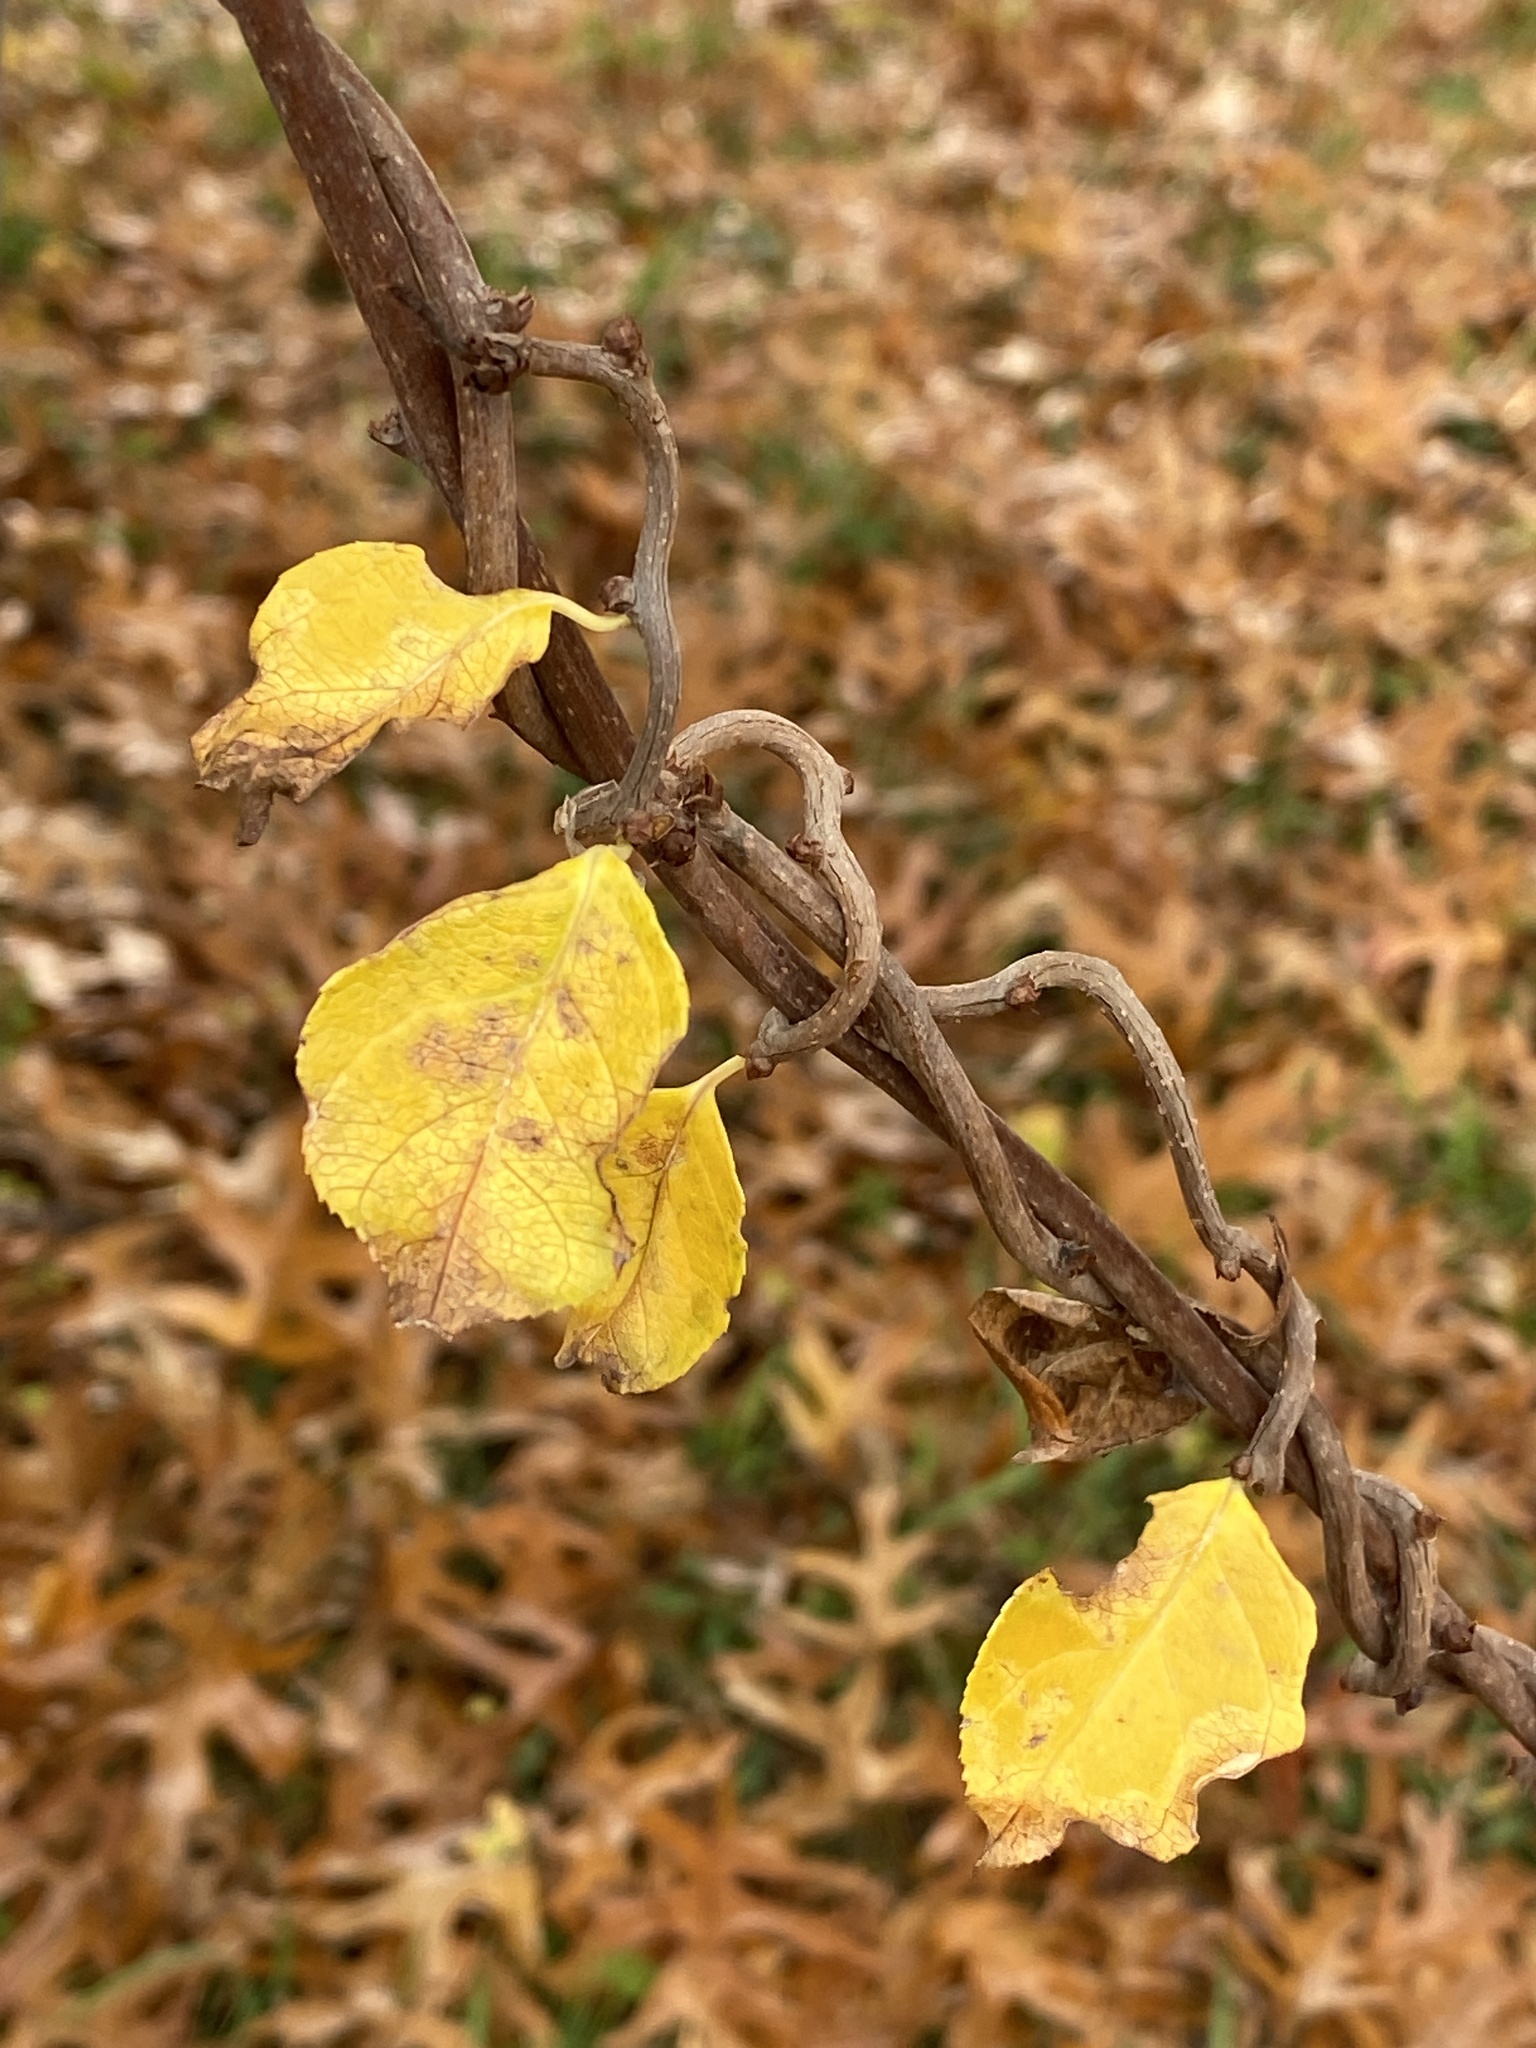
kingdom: Plantae
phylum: Tracheophyta
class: Magnoliopsida
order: Celastrales
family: Celastraceae
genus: Celastrus
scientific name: Celastrus orbiculatus
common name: Oriental bittersweet
